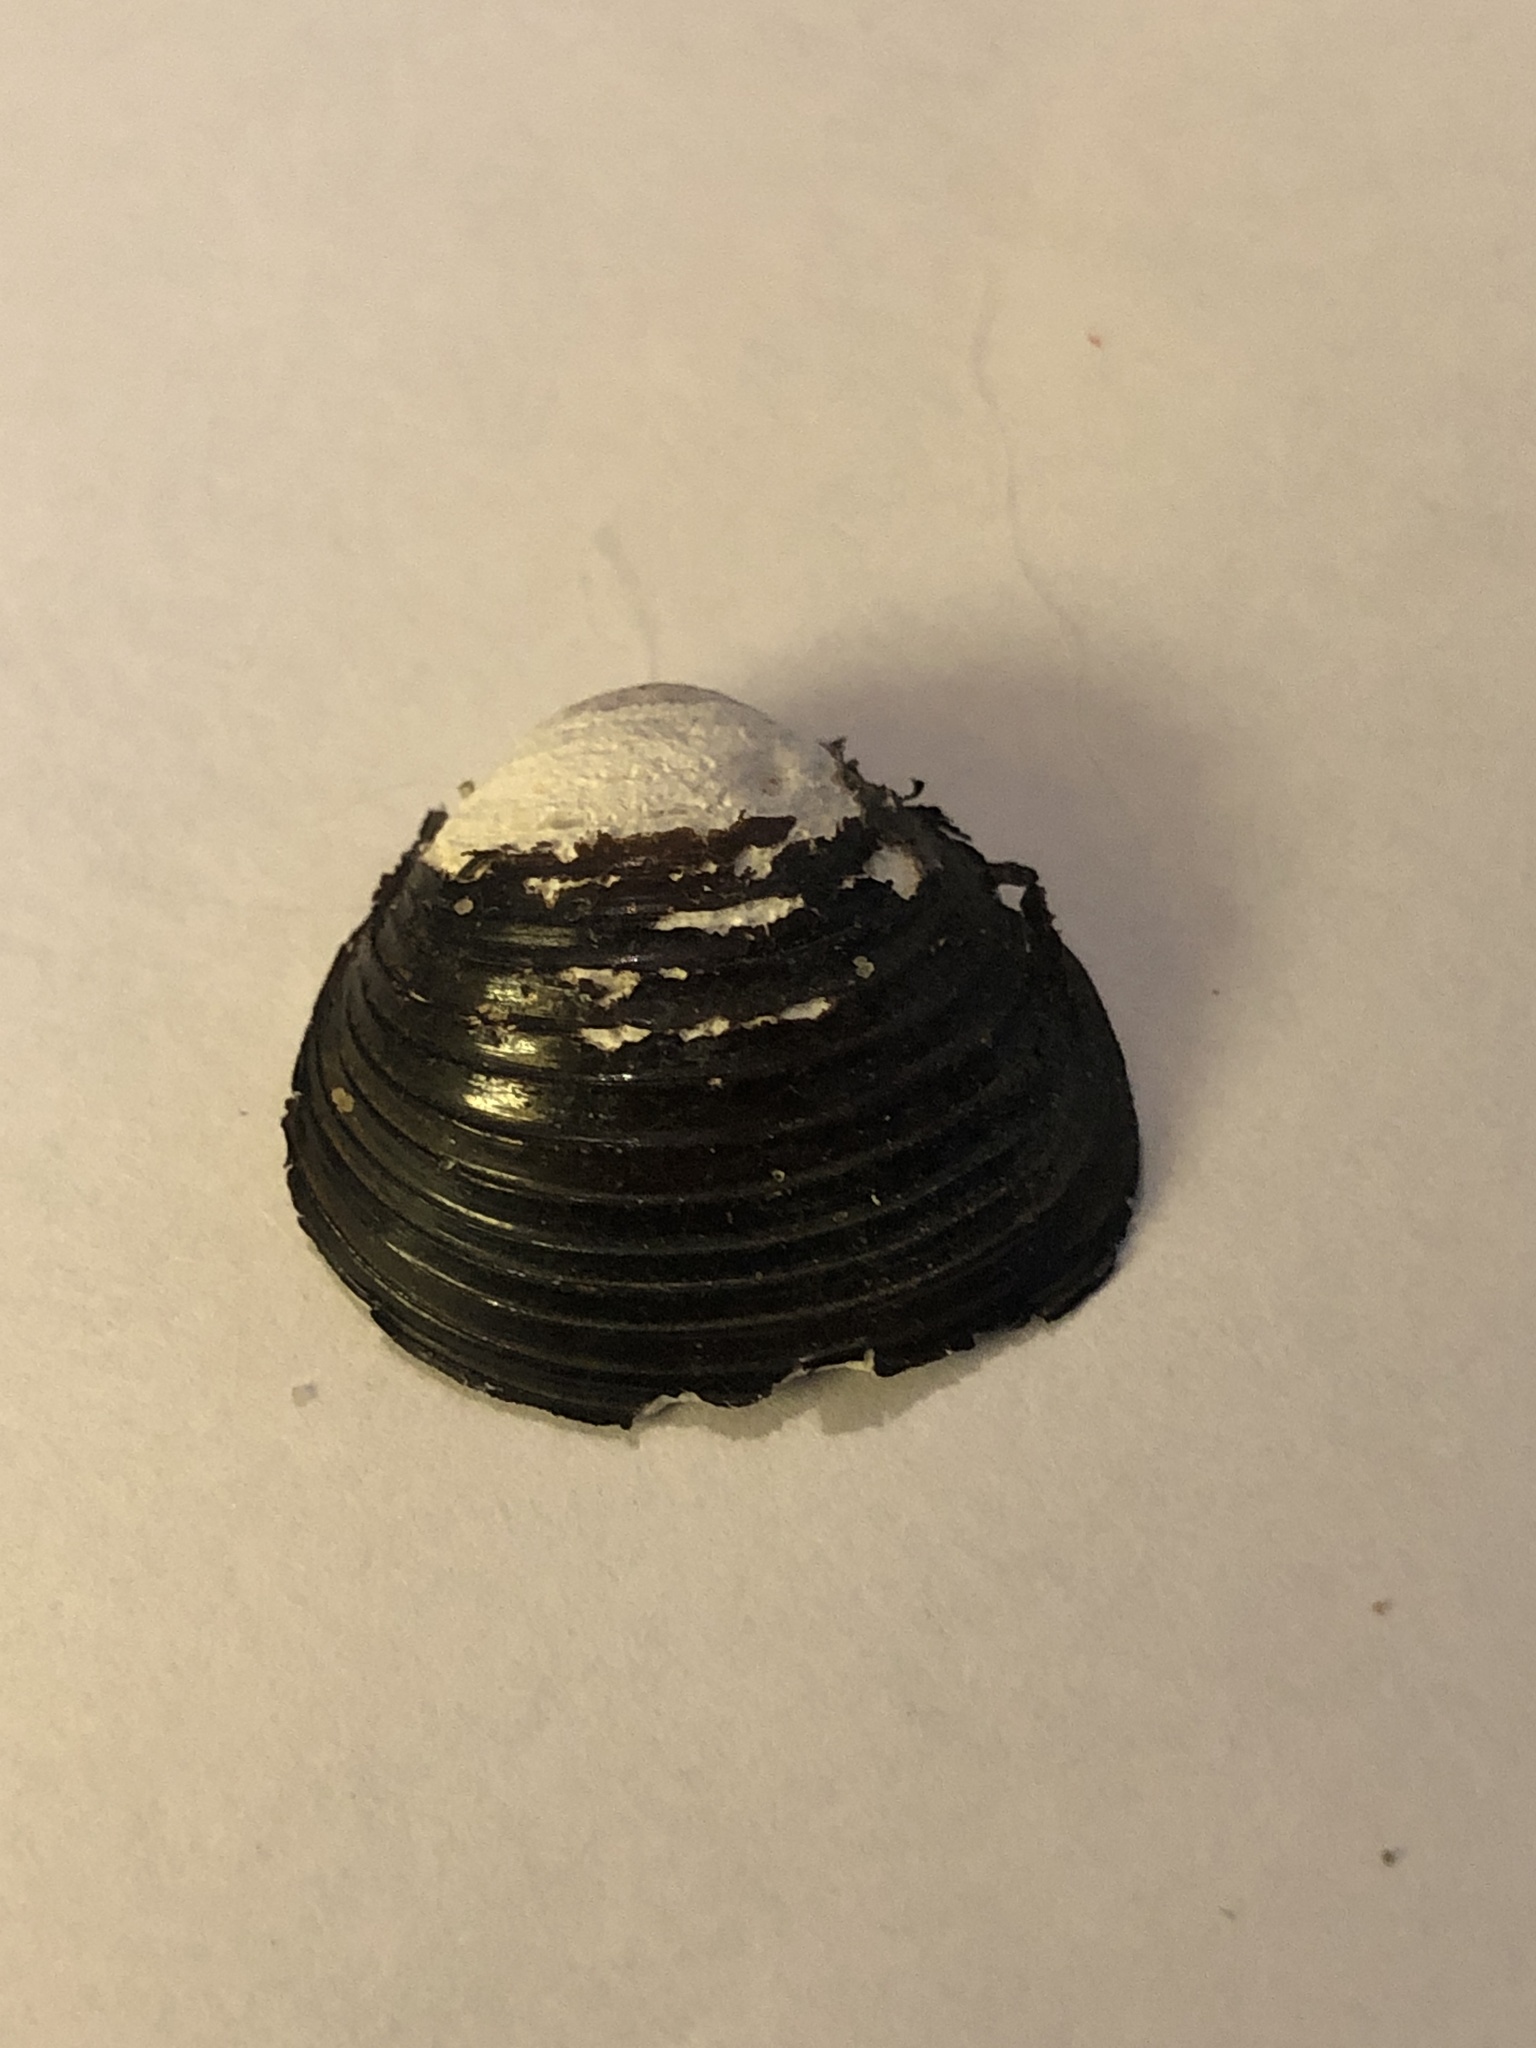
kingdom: Animalia
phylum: Mollusca
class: Bivalvia
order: Venerida
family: Cyrenidae
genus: Corbicula
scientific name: Corbicula fluminea
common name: Asian clam
